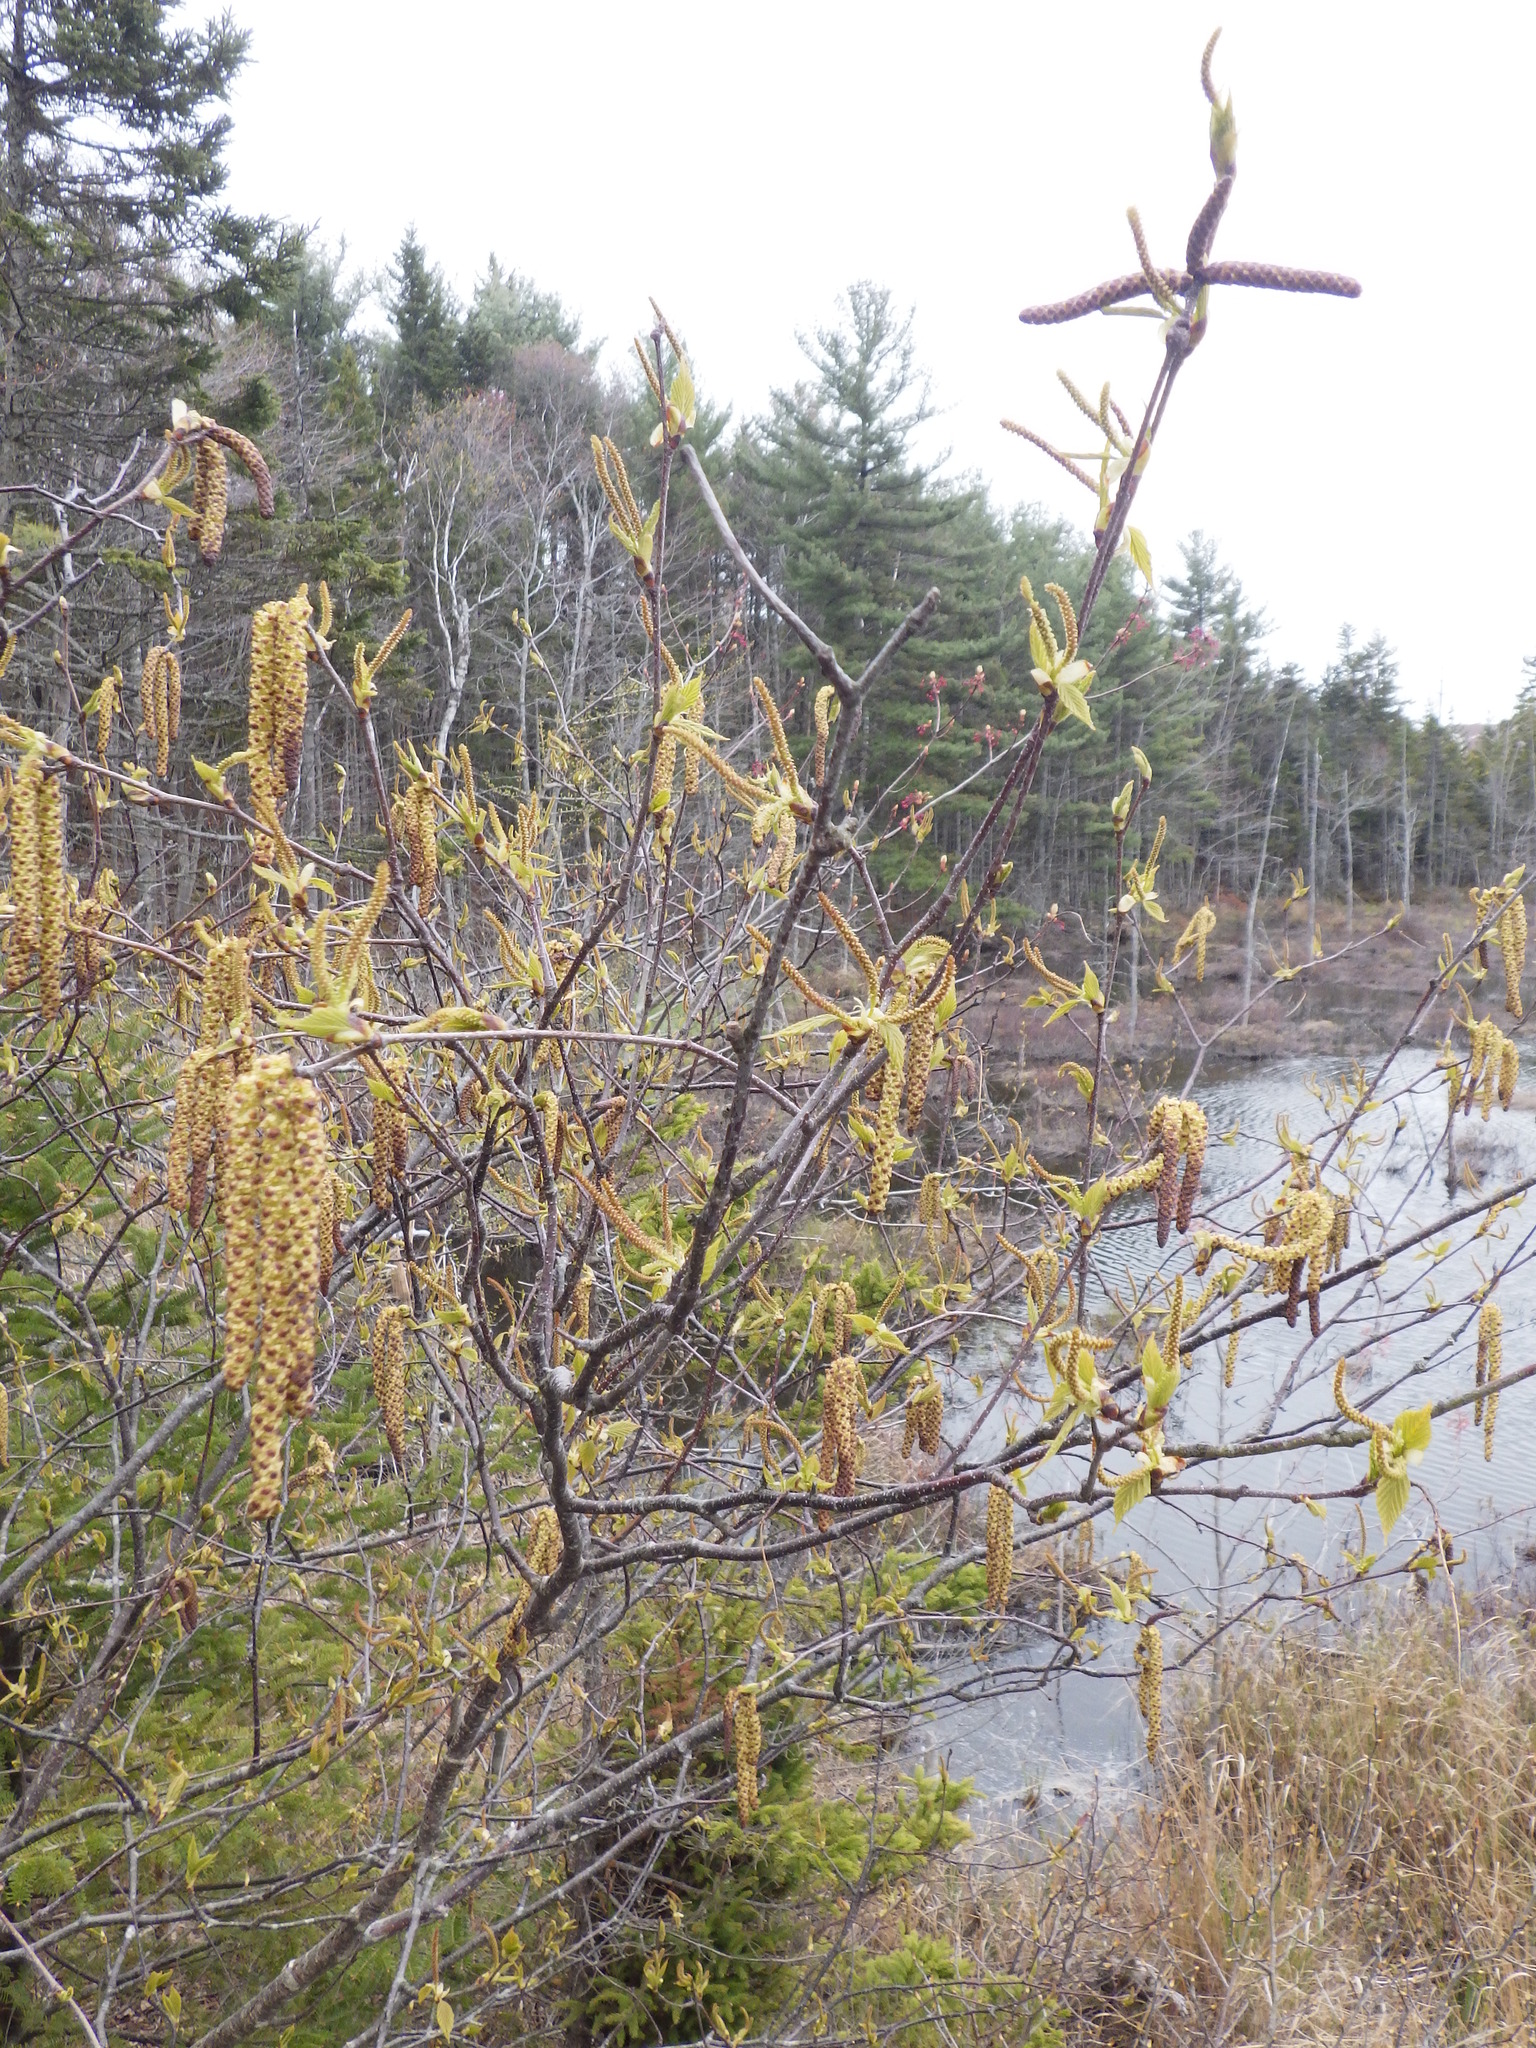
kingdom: Plantae
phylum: Tracheophyta
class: Magnoliopsida
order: Fagales
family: Betulaceae
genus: Betula
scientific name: Betula papyrifera
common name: Paper birch
